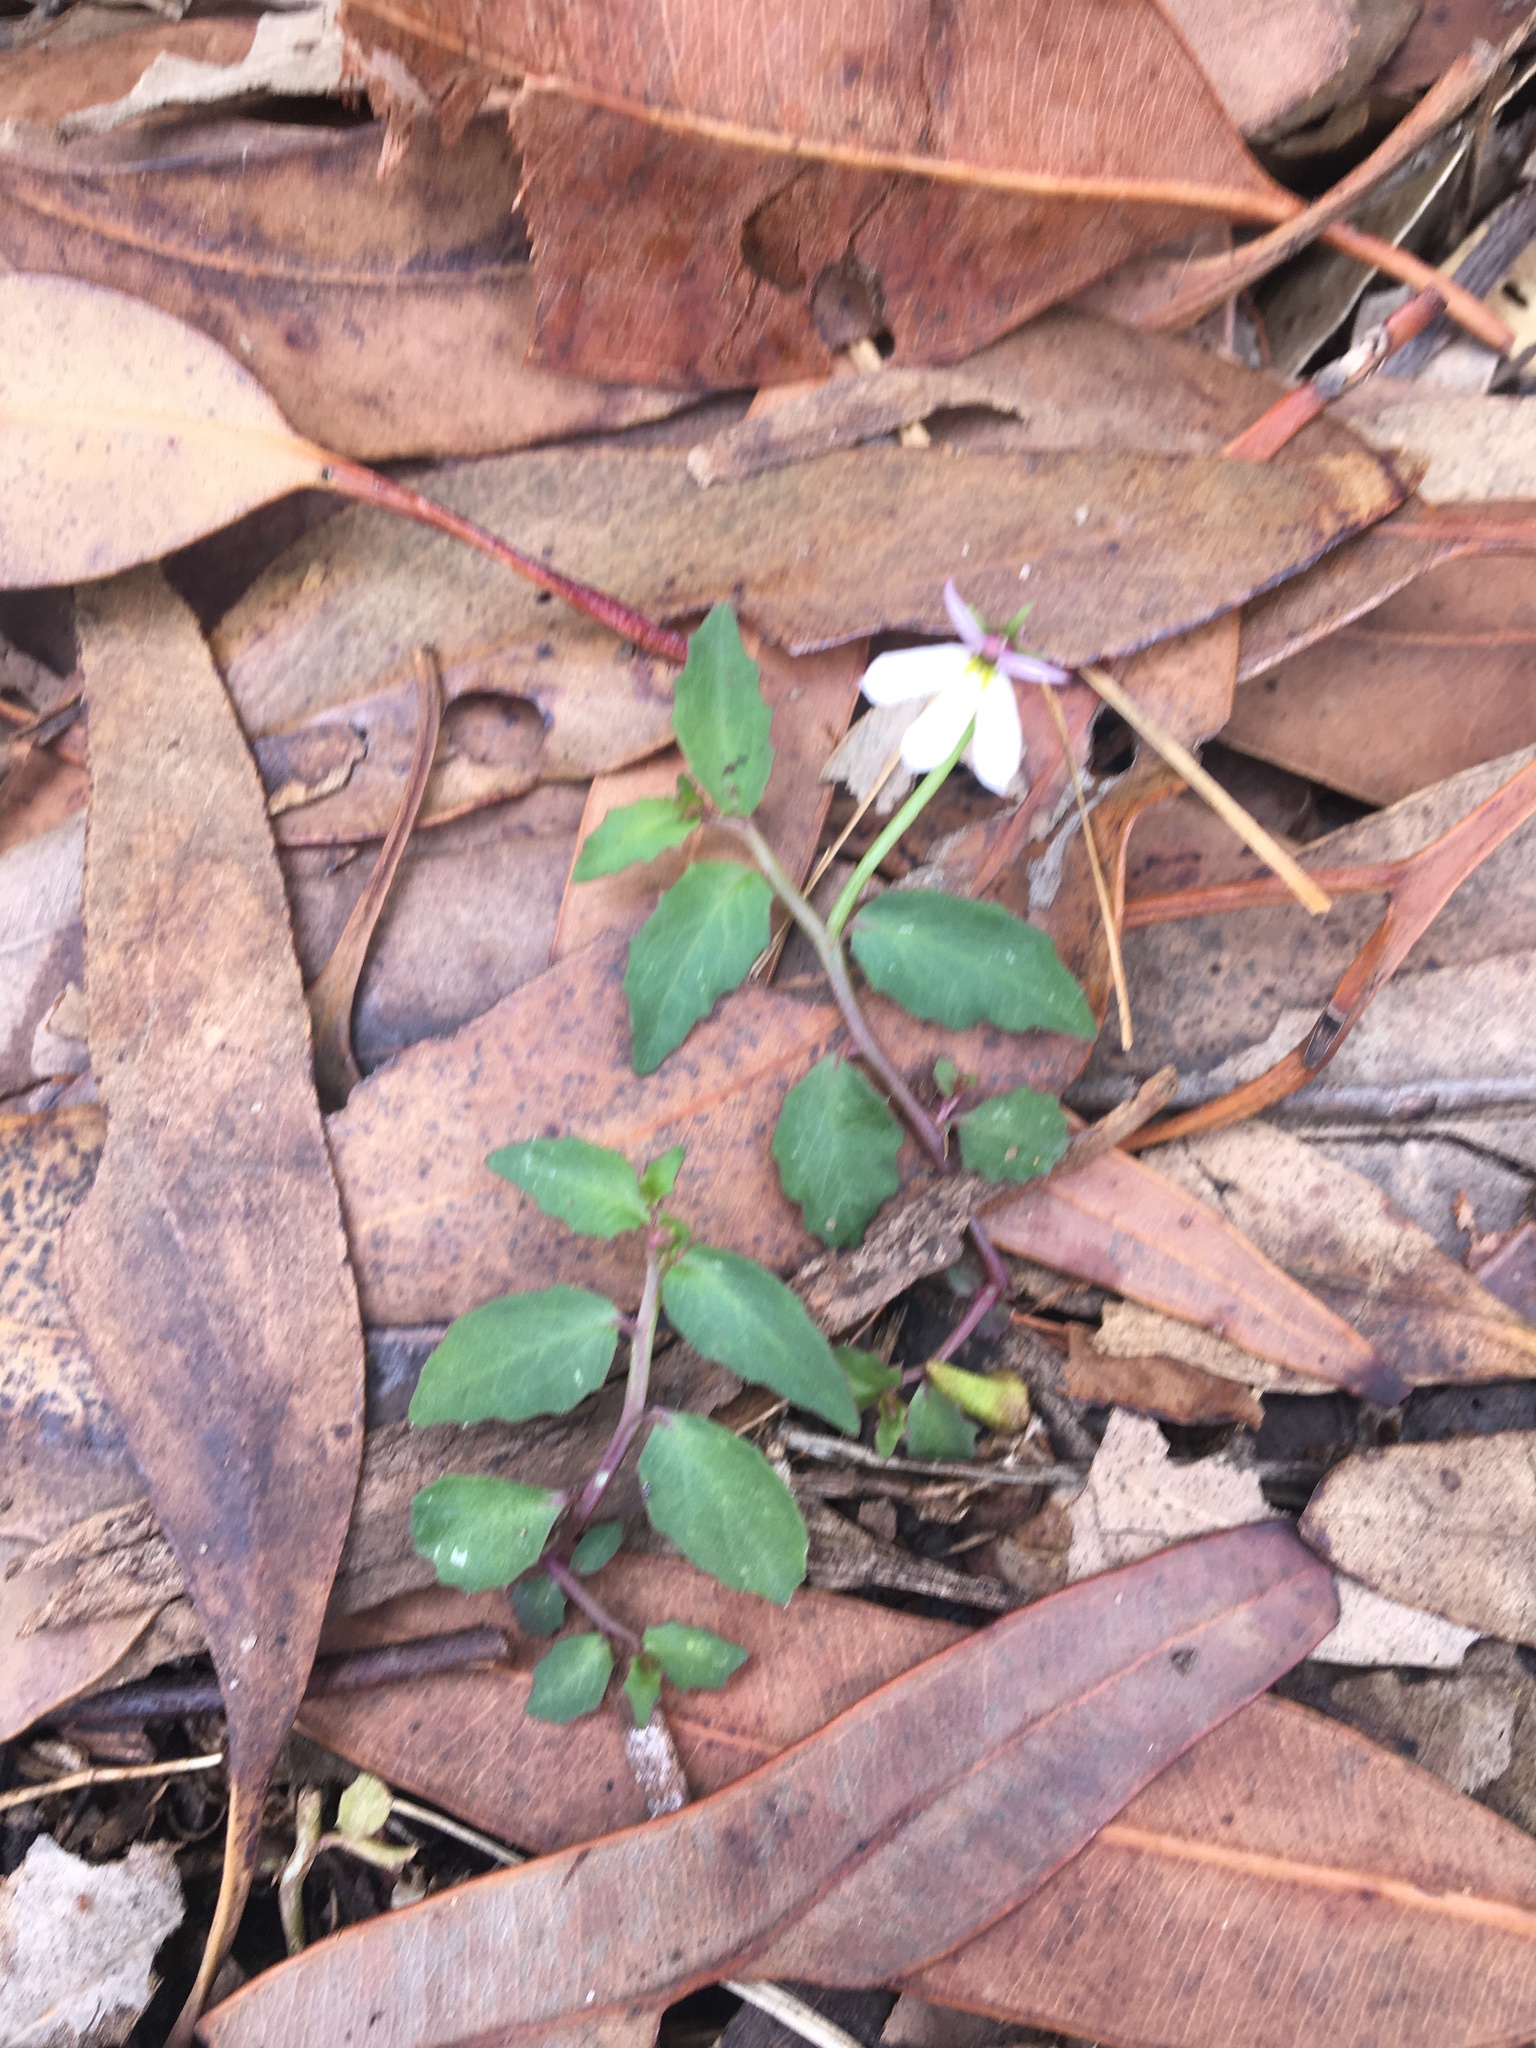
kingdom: Plantae
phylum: Tracheophyta
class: Magnoliopsida
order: Asterales
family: Campanulaceae
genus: Lobelia
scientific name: Lobelia purpurascens
